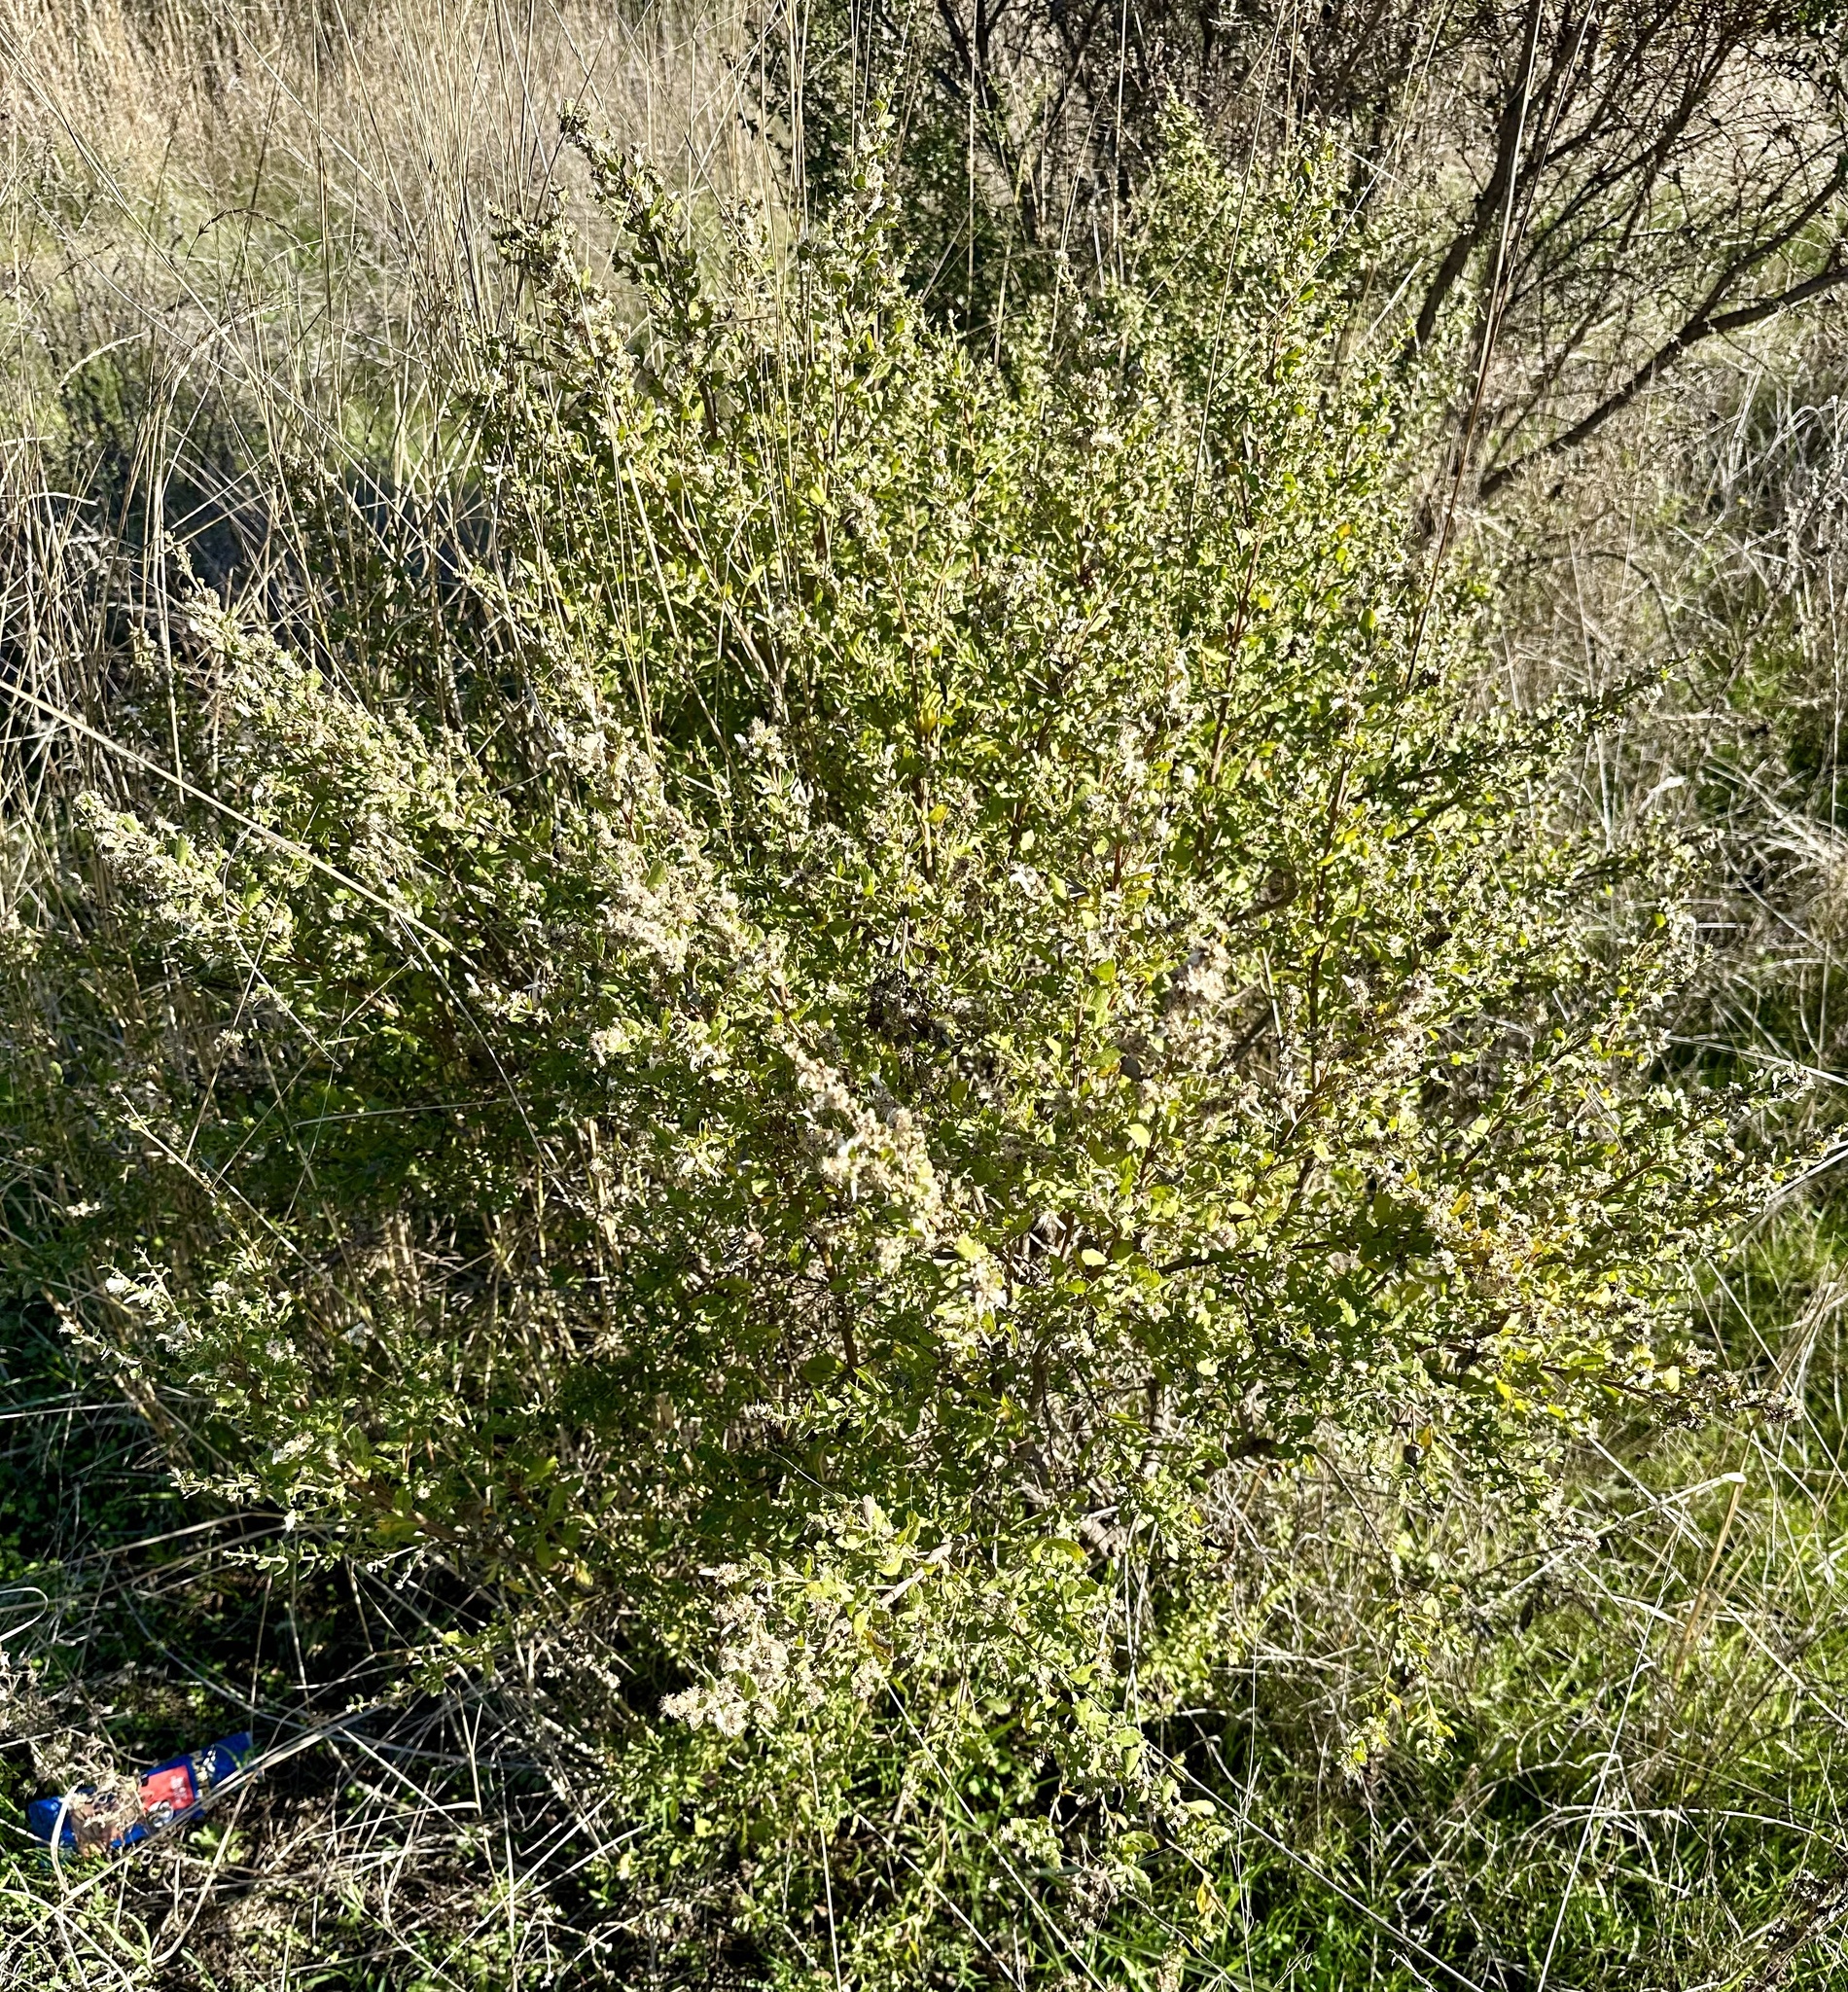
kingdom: Plantae
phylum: Tracheophyta
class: Magnoliopsida
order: Asterales
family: Asteraceae
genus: Baccharis
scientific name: Baccharis pilularis
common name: Coyotebrush
